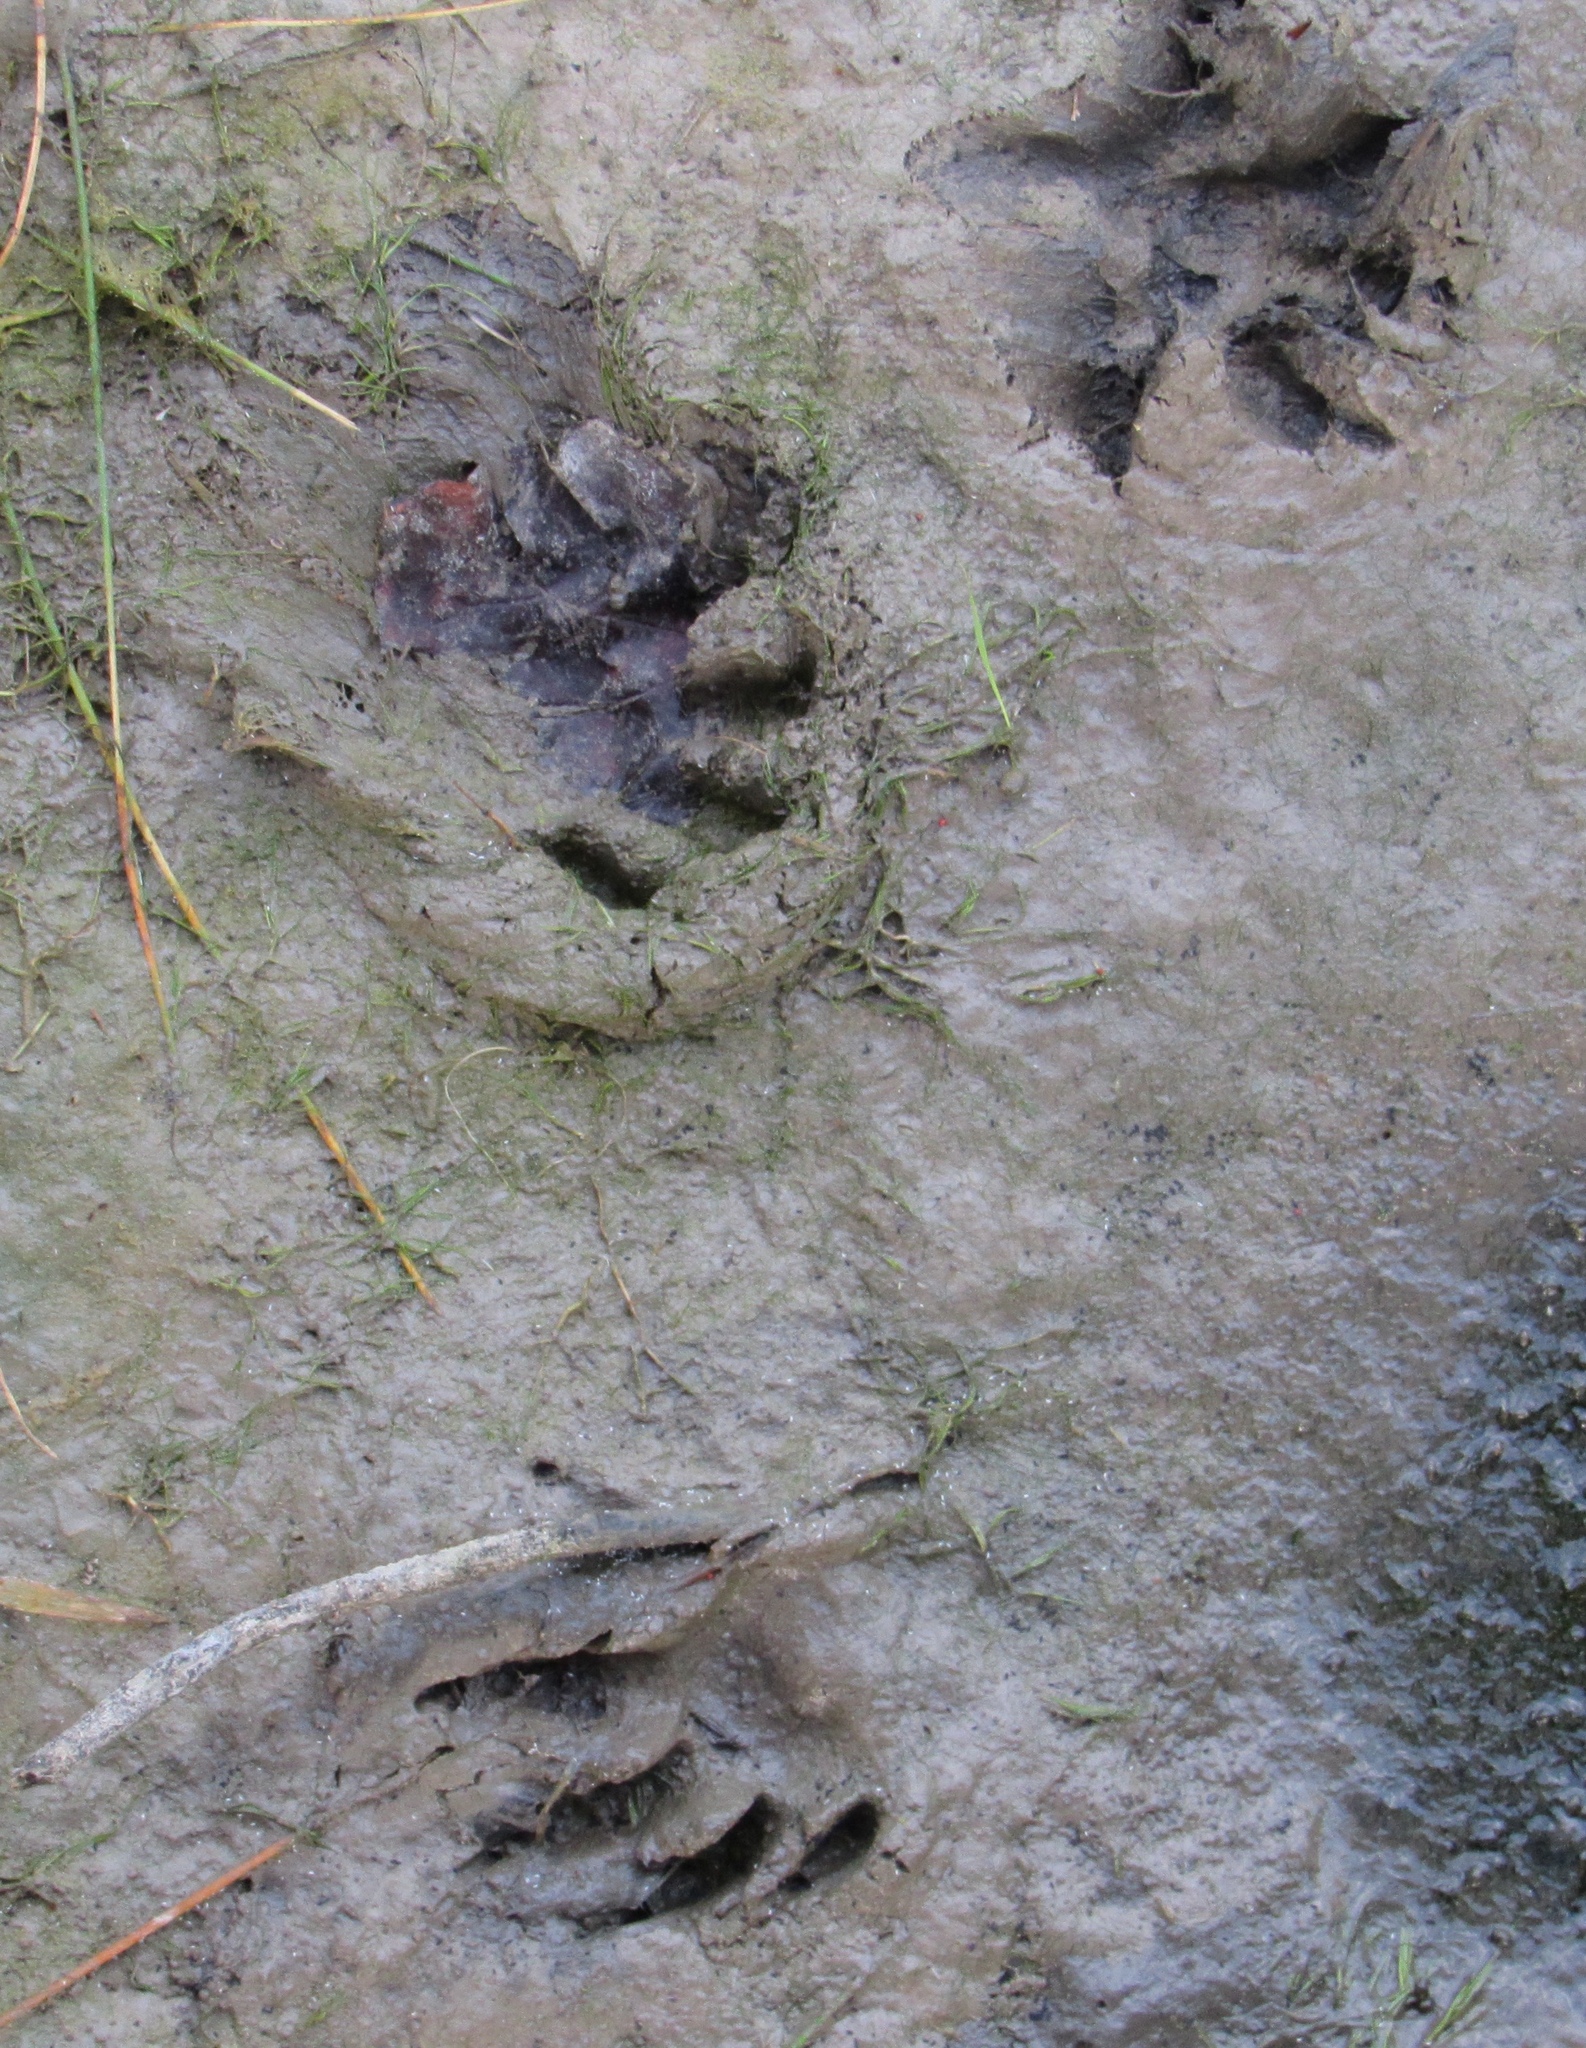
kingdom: Animalia
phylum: Chordata
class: Mammalia
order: Carnivora
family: Procyonidae
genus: Procyon
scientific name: Procyon lotor
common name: Raccoon
